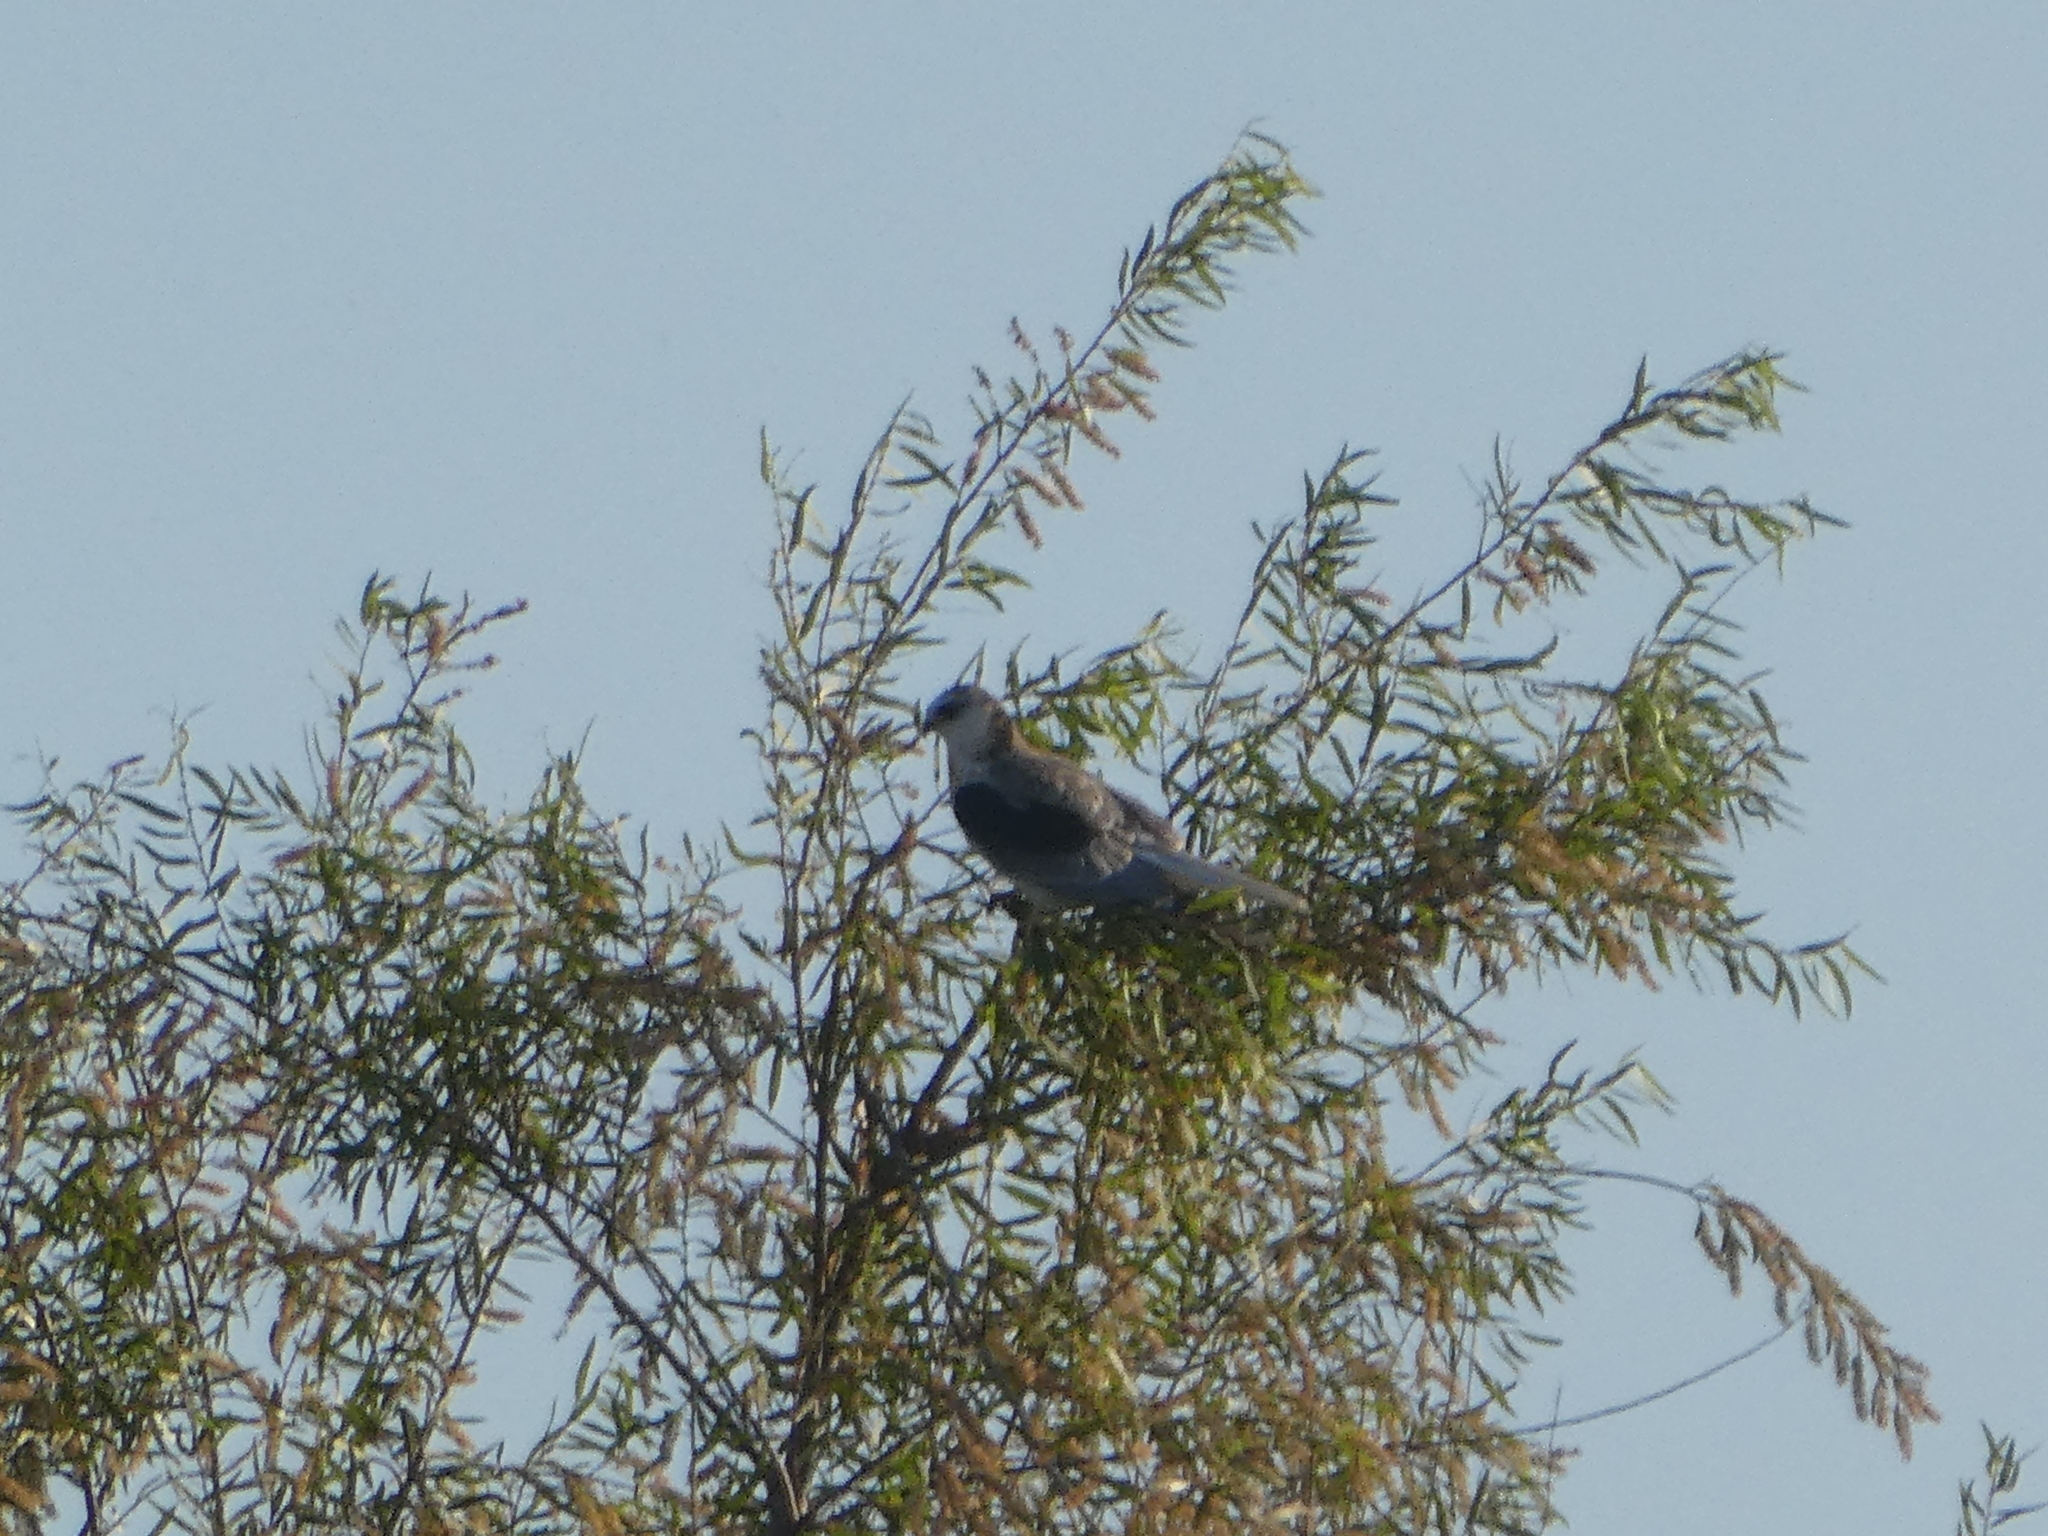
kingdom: Animalia
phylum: Chordata
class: Aves
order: Accipitriformes
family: Accipitridae
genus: Elanus
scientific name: Elanus leucurus
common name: White-tailed kite
